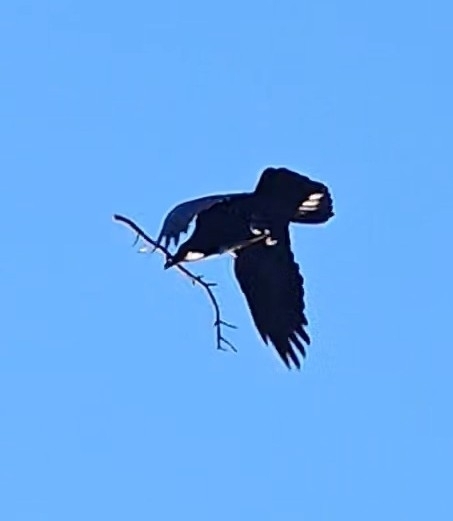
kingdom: Animalia
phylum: Chordata
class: Aves
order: Passeriformes
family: Corvidae
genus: Corvus
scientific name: Corvus corax
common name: Common raven
